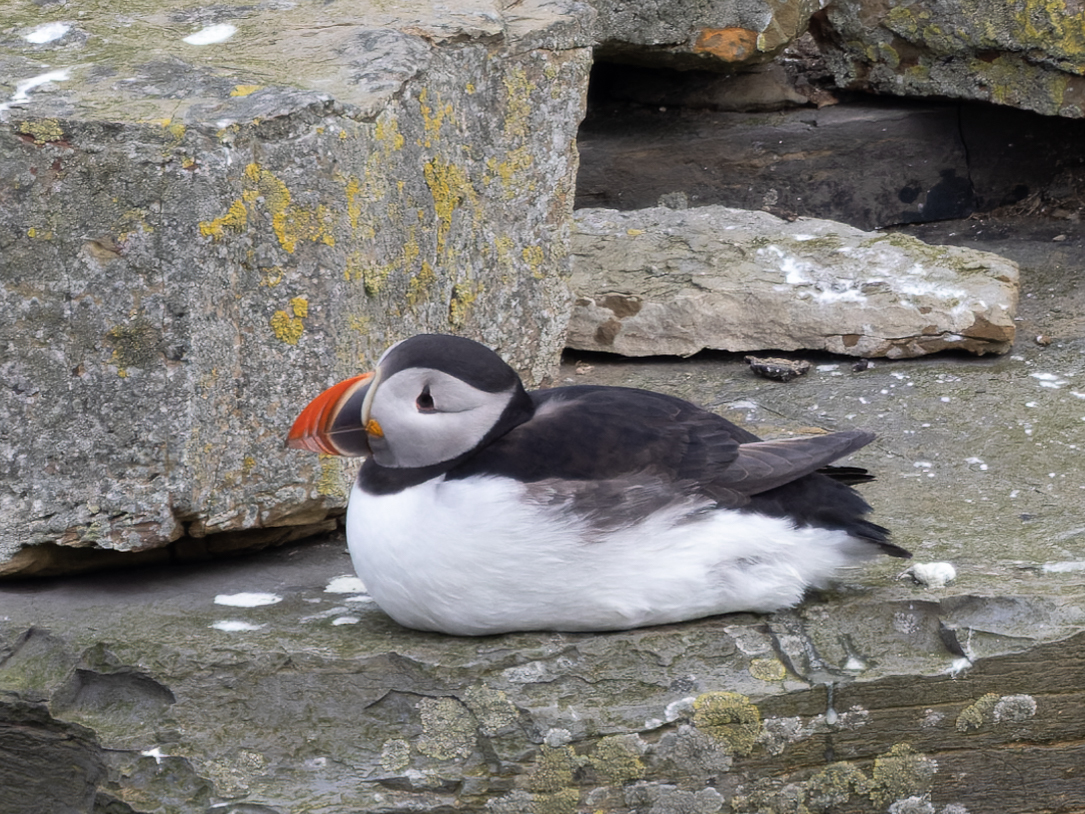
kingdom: Animalia
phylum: Chordata
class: Aves
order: Charadriiformes
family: Alcidae
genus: Fratercula
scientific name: Fratercula arctica
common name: Atlantic puffin
